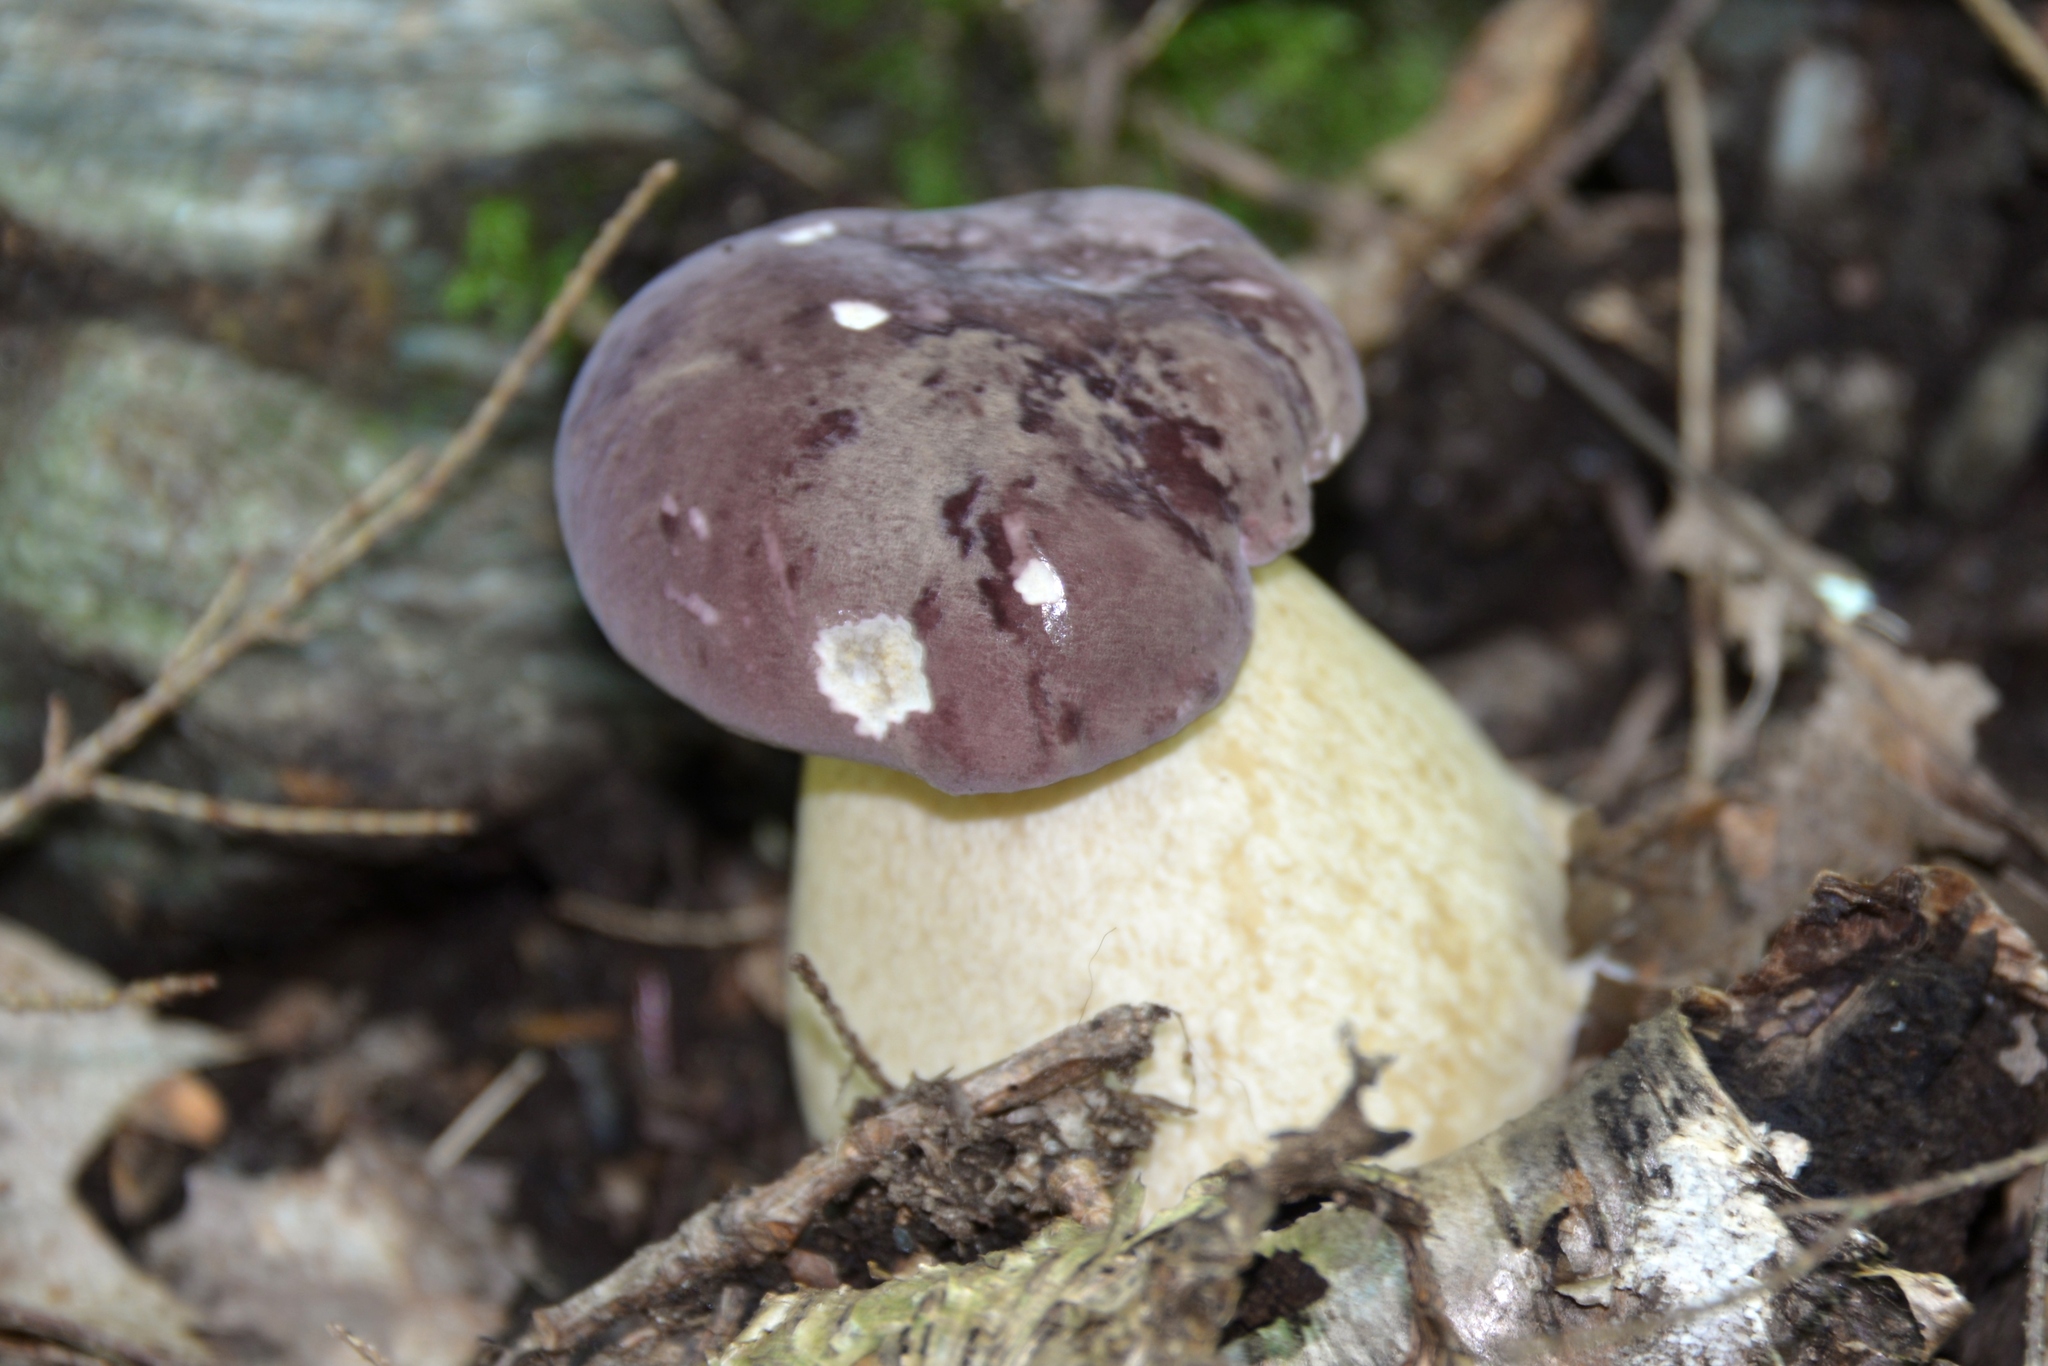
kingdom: Fungi
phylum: Basidiomycota
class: Agaricomycetes
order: Boletales
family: Boletaceae
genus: Tylopilus
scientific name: Tylopilus rubrobrunneus
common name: Reddish brown bitter bolete
